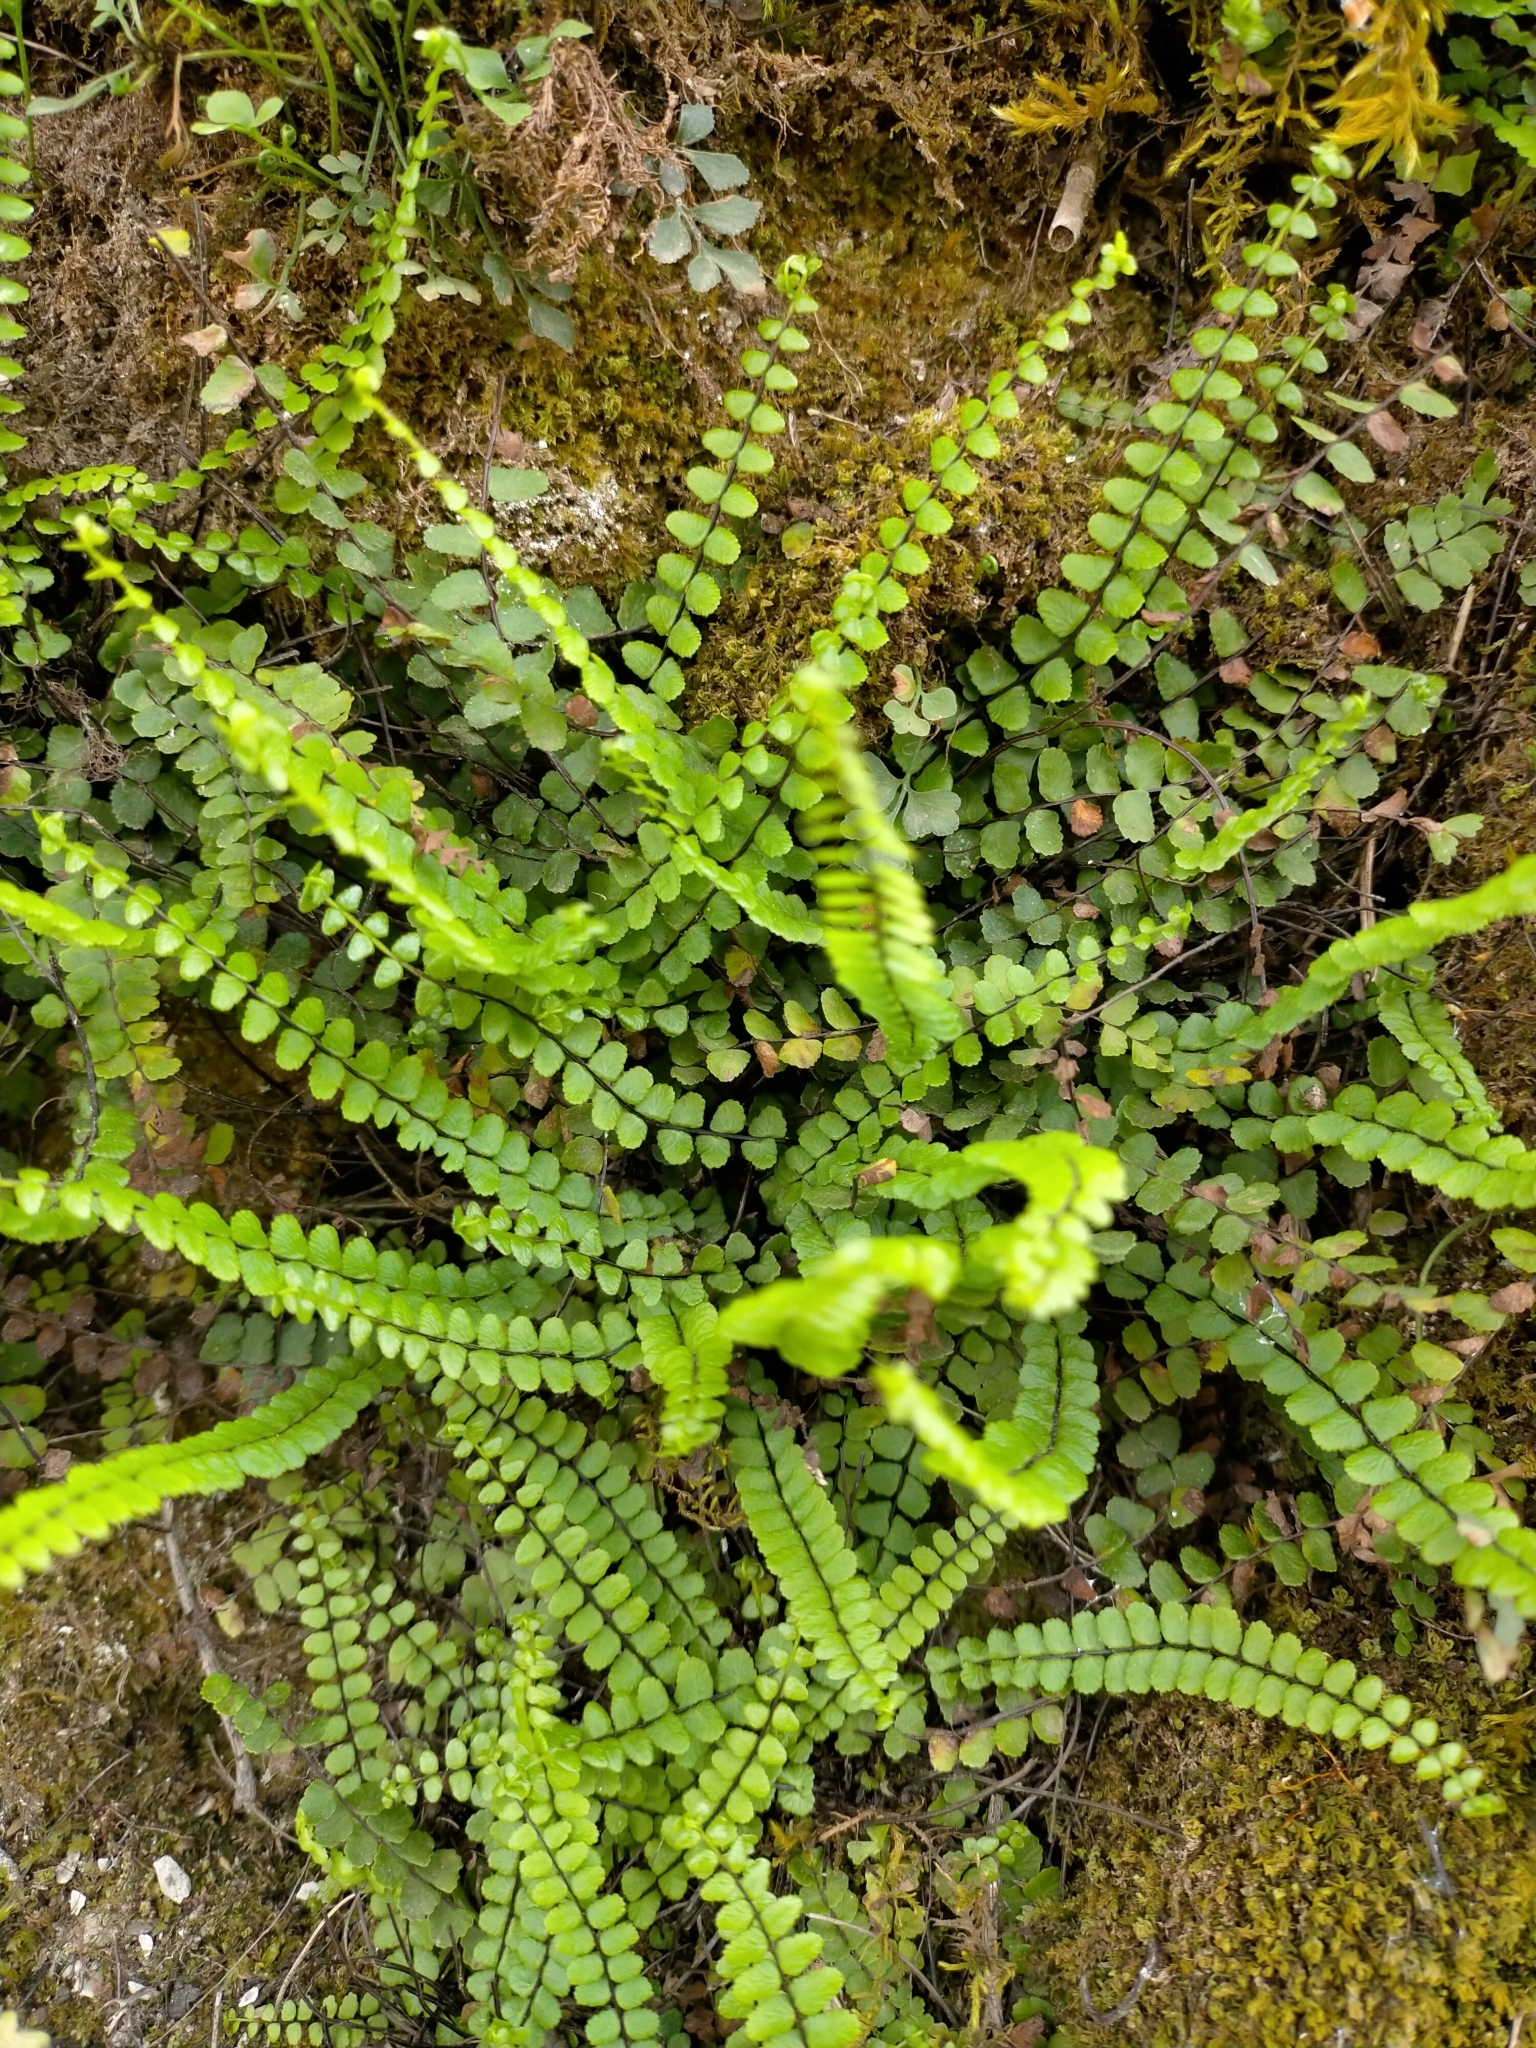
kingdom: Plantae
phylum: Tracheophyta
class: Polypodiopsida
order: Polypodiales
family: Aspleniaceae
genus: Asplenium
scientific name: Asplenium trichomanes
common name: Maidenhair spleenwort
